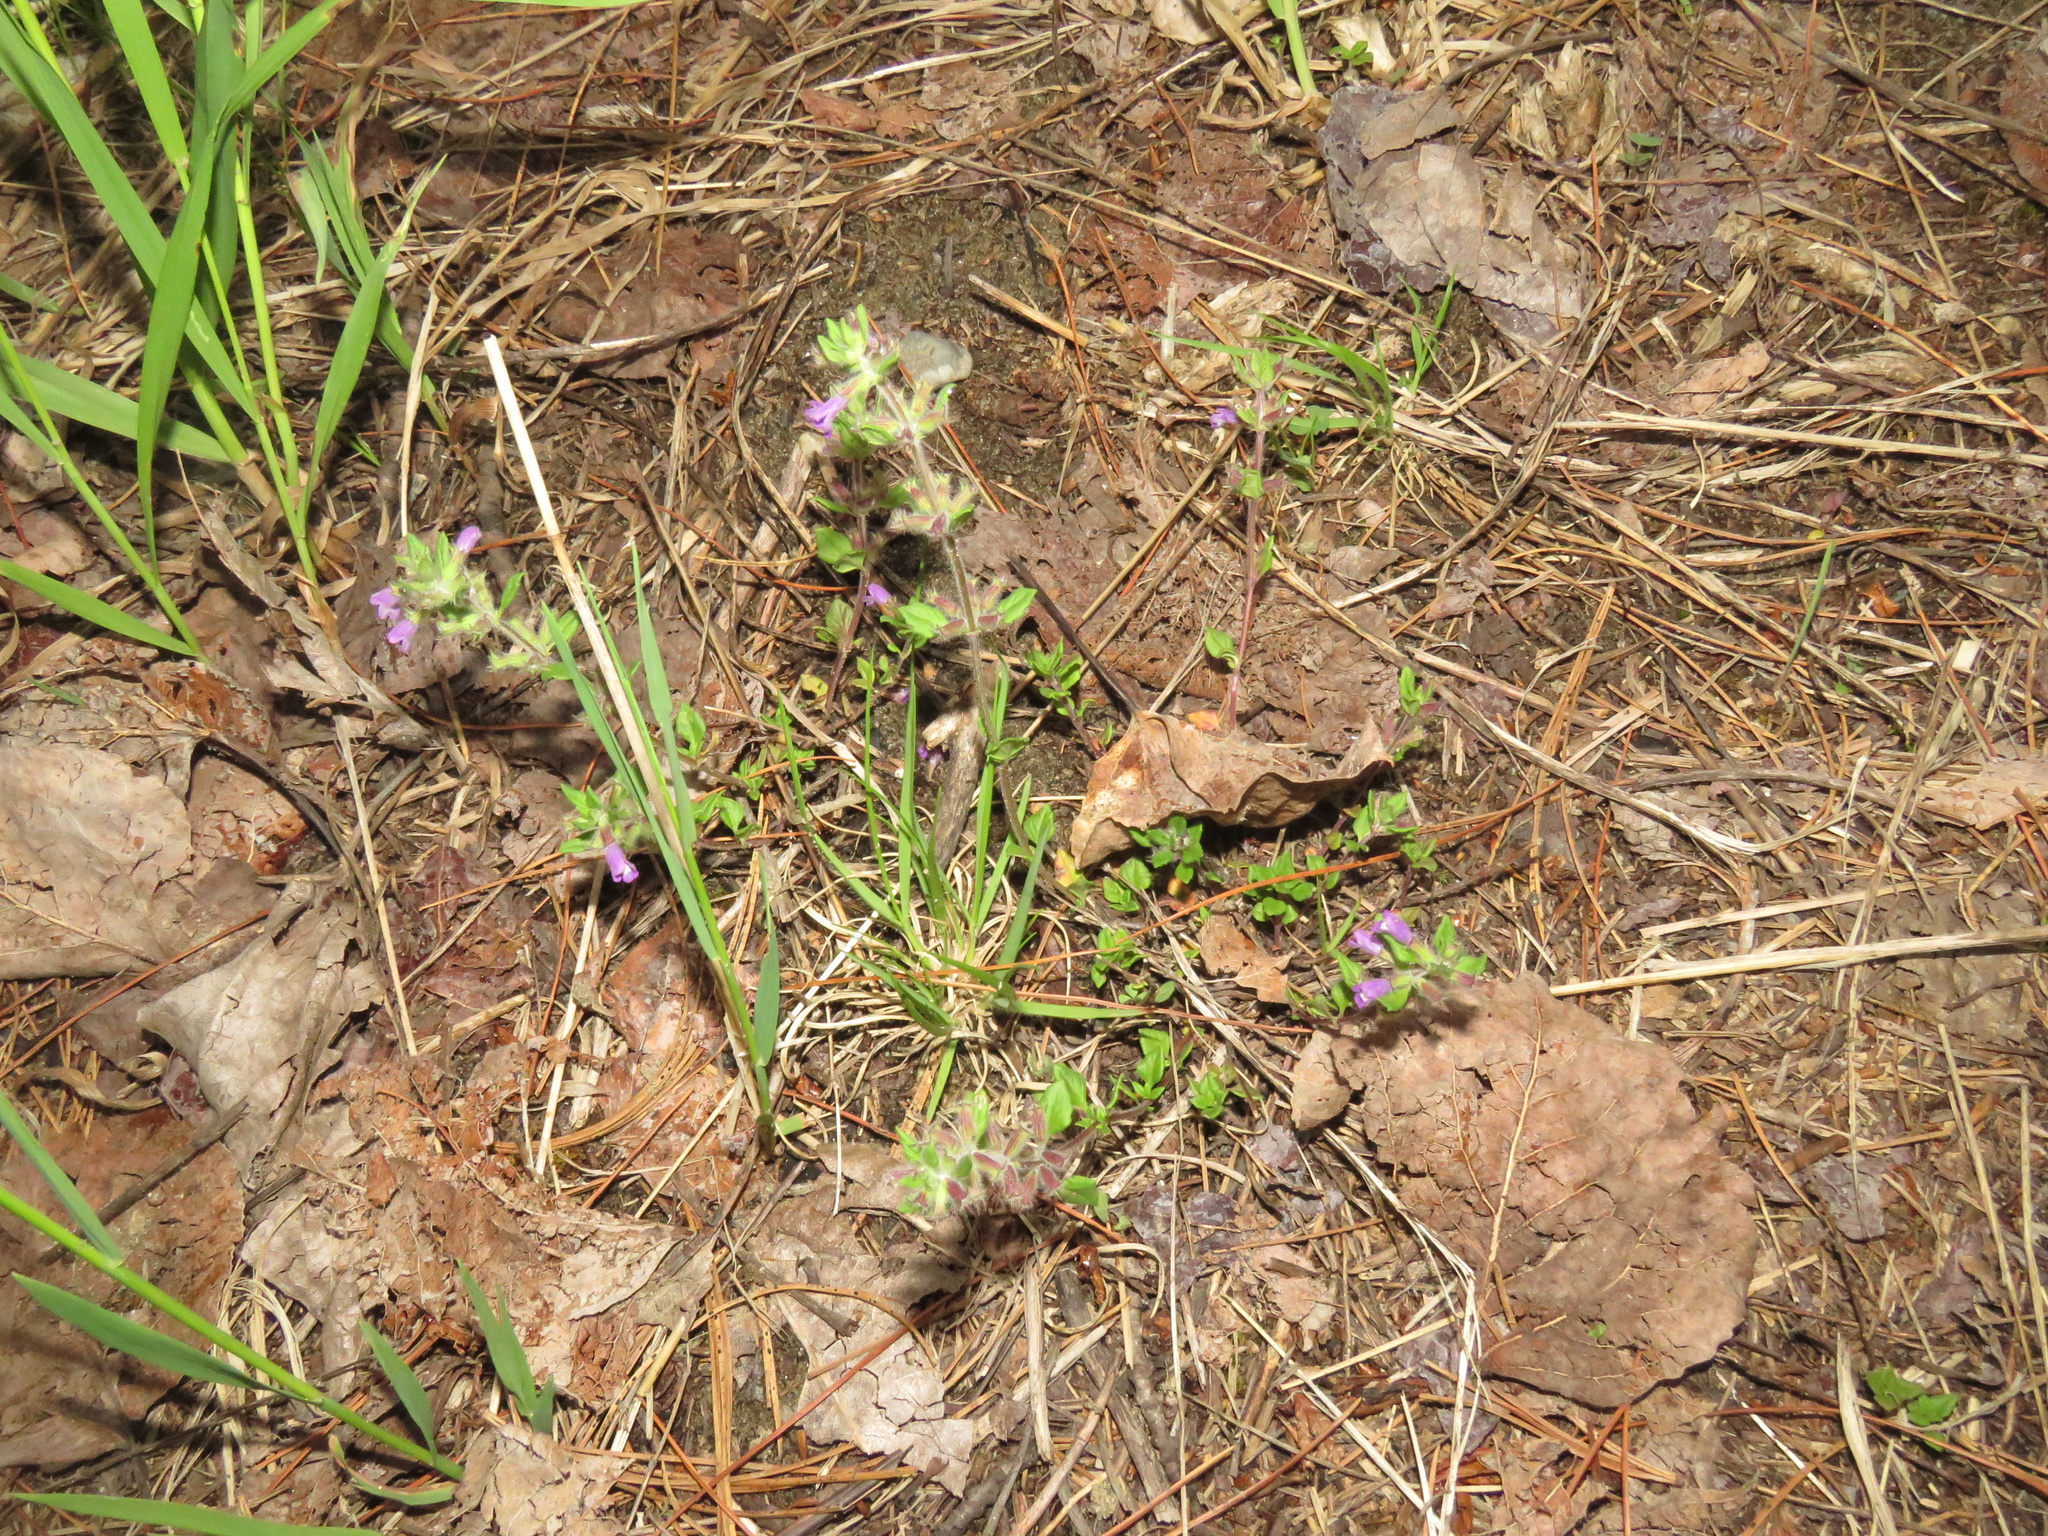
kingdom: Plantae
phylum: Tracheophyta
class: Magnoliopsida
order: Lamiales
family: Lamiaceae
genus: Clinopodium
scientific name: Clinopodium acinos
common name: Basil thyme
